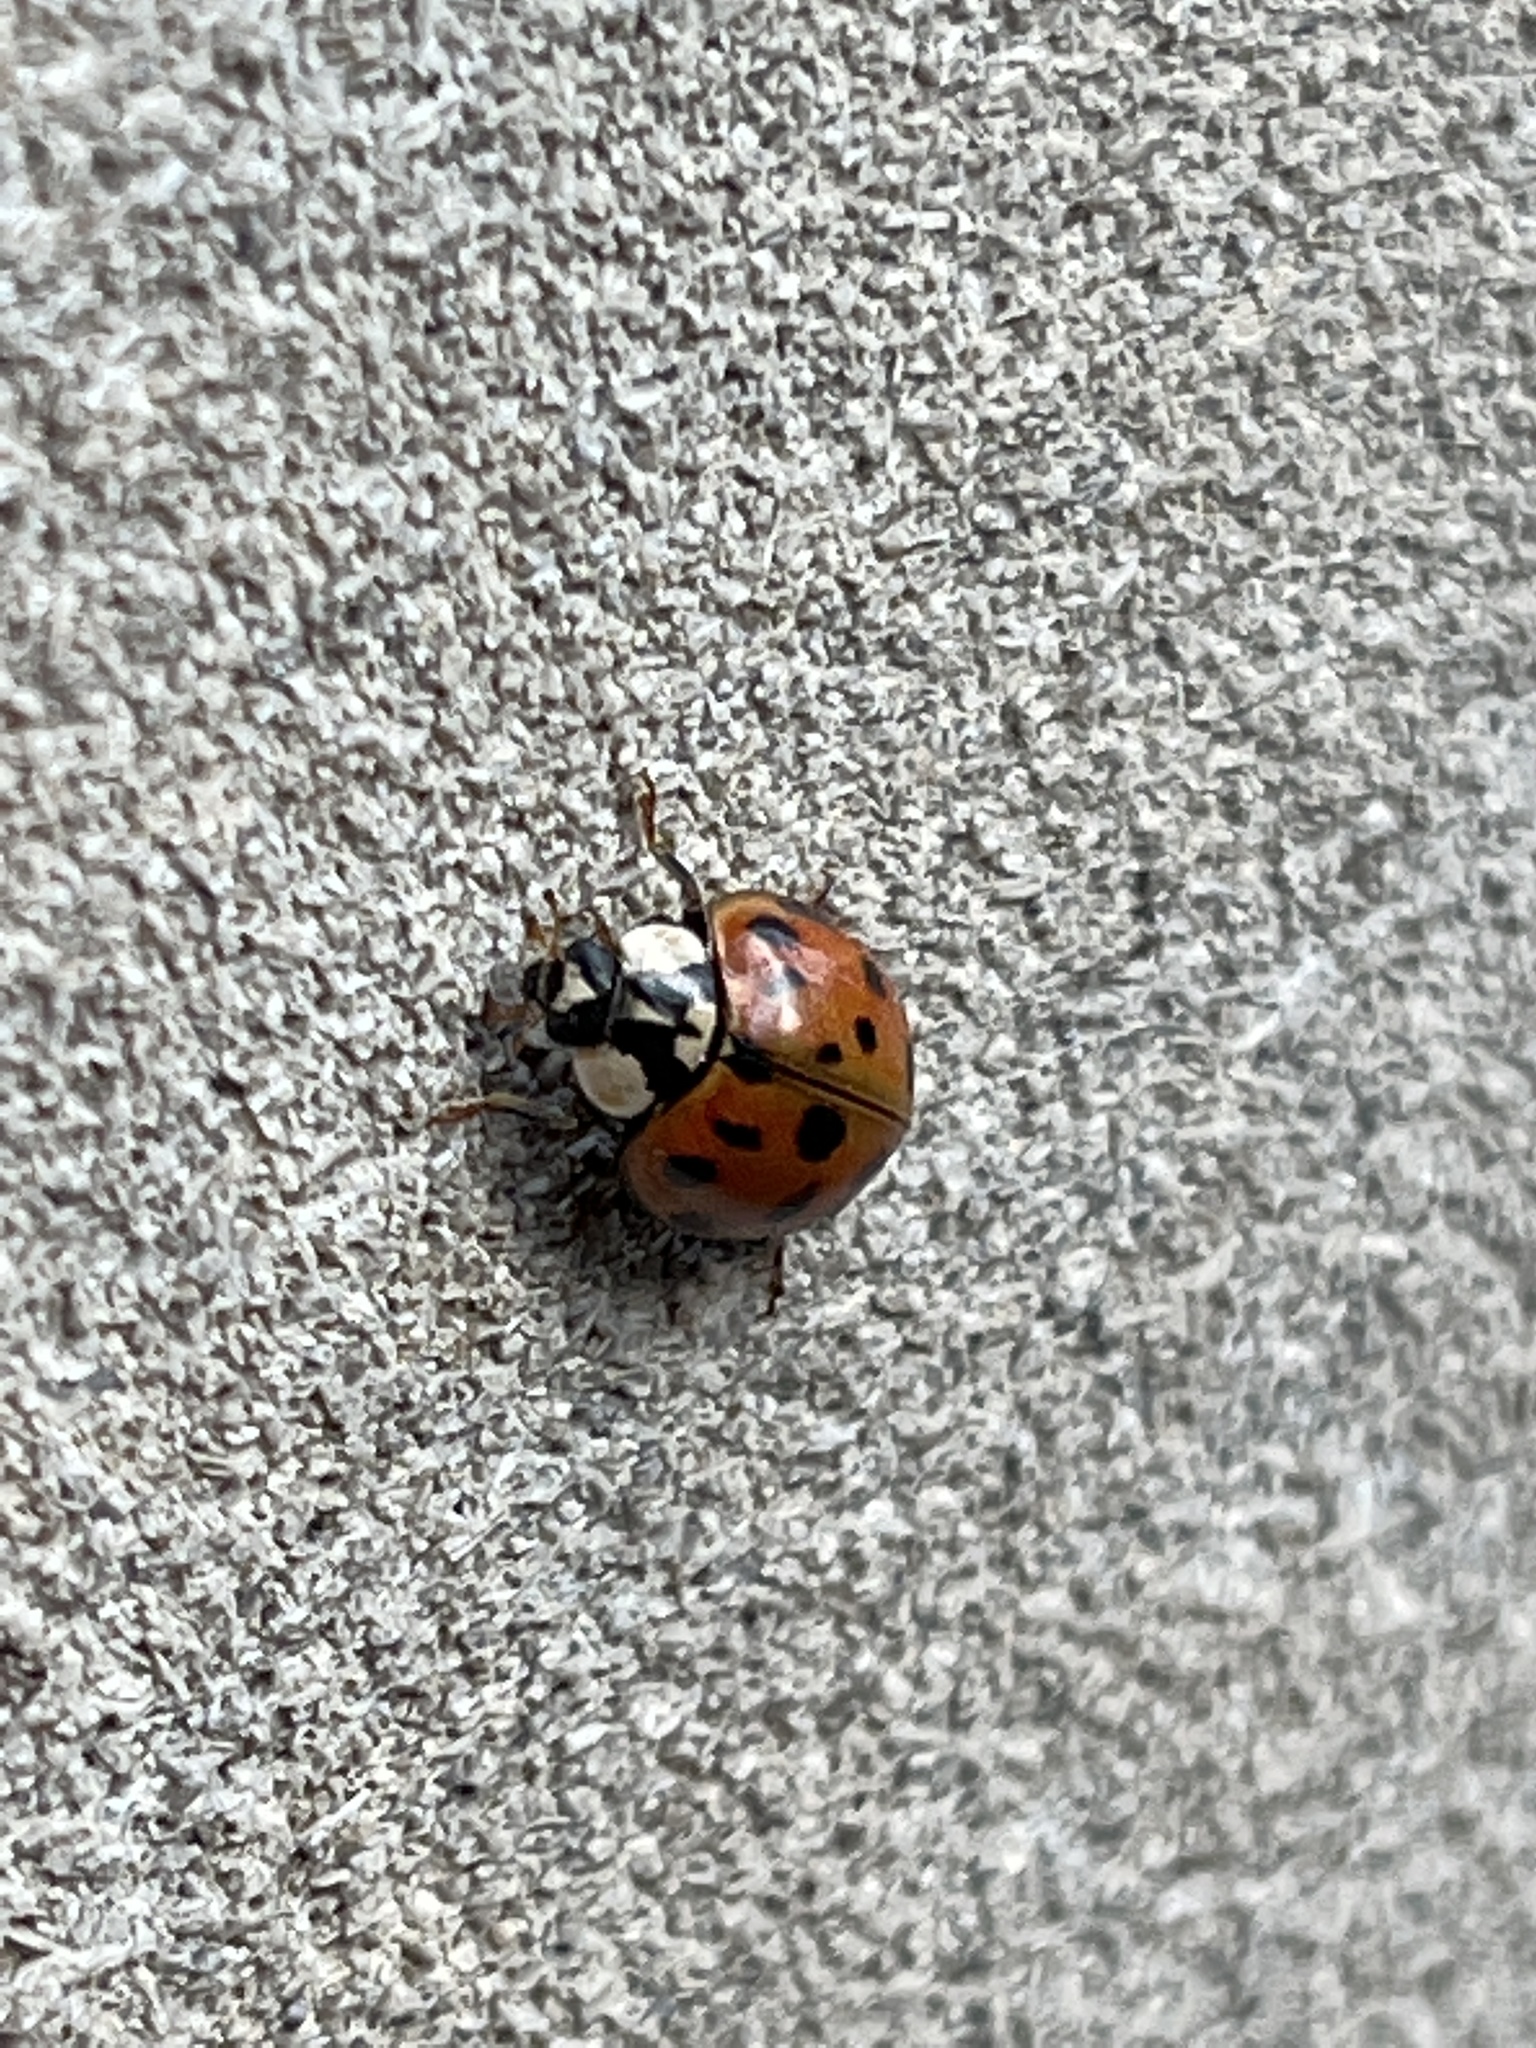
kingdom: Animalia
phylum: Arthropoda
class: Insecta
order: Coleoptera
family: Coccinellidae
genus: Harmonia
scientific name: Harmonia axyridis
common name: Harlequin ladybird
